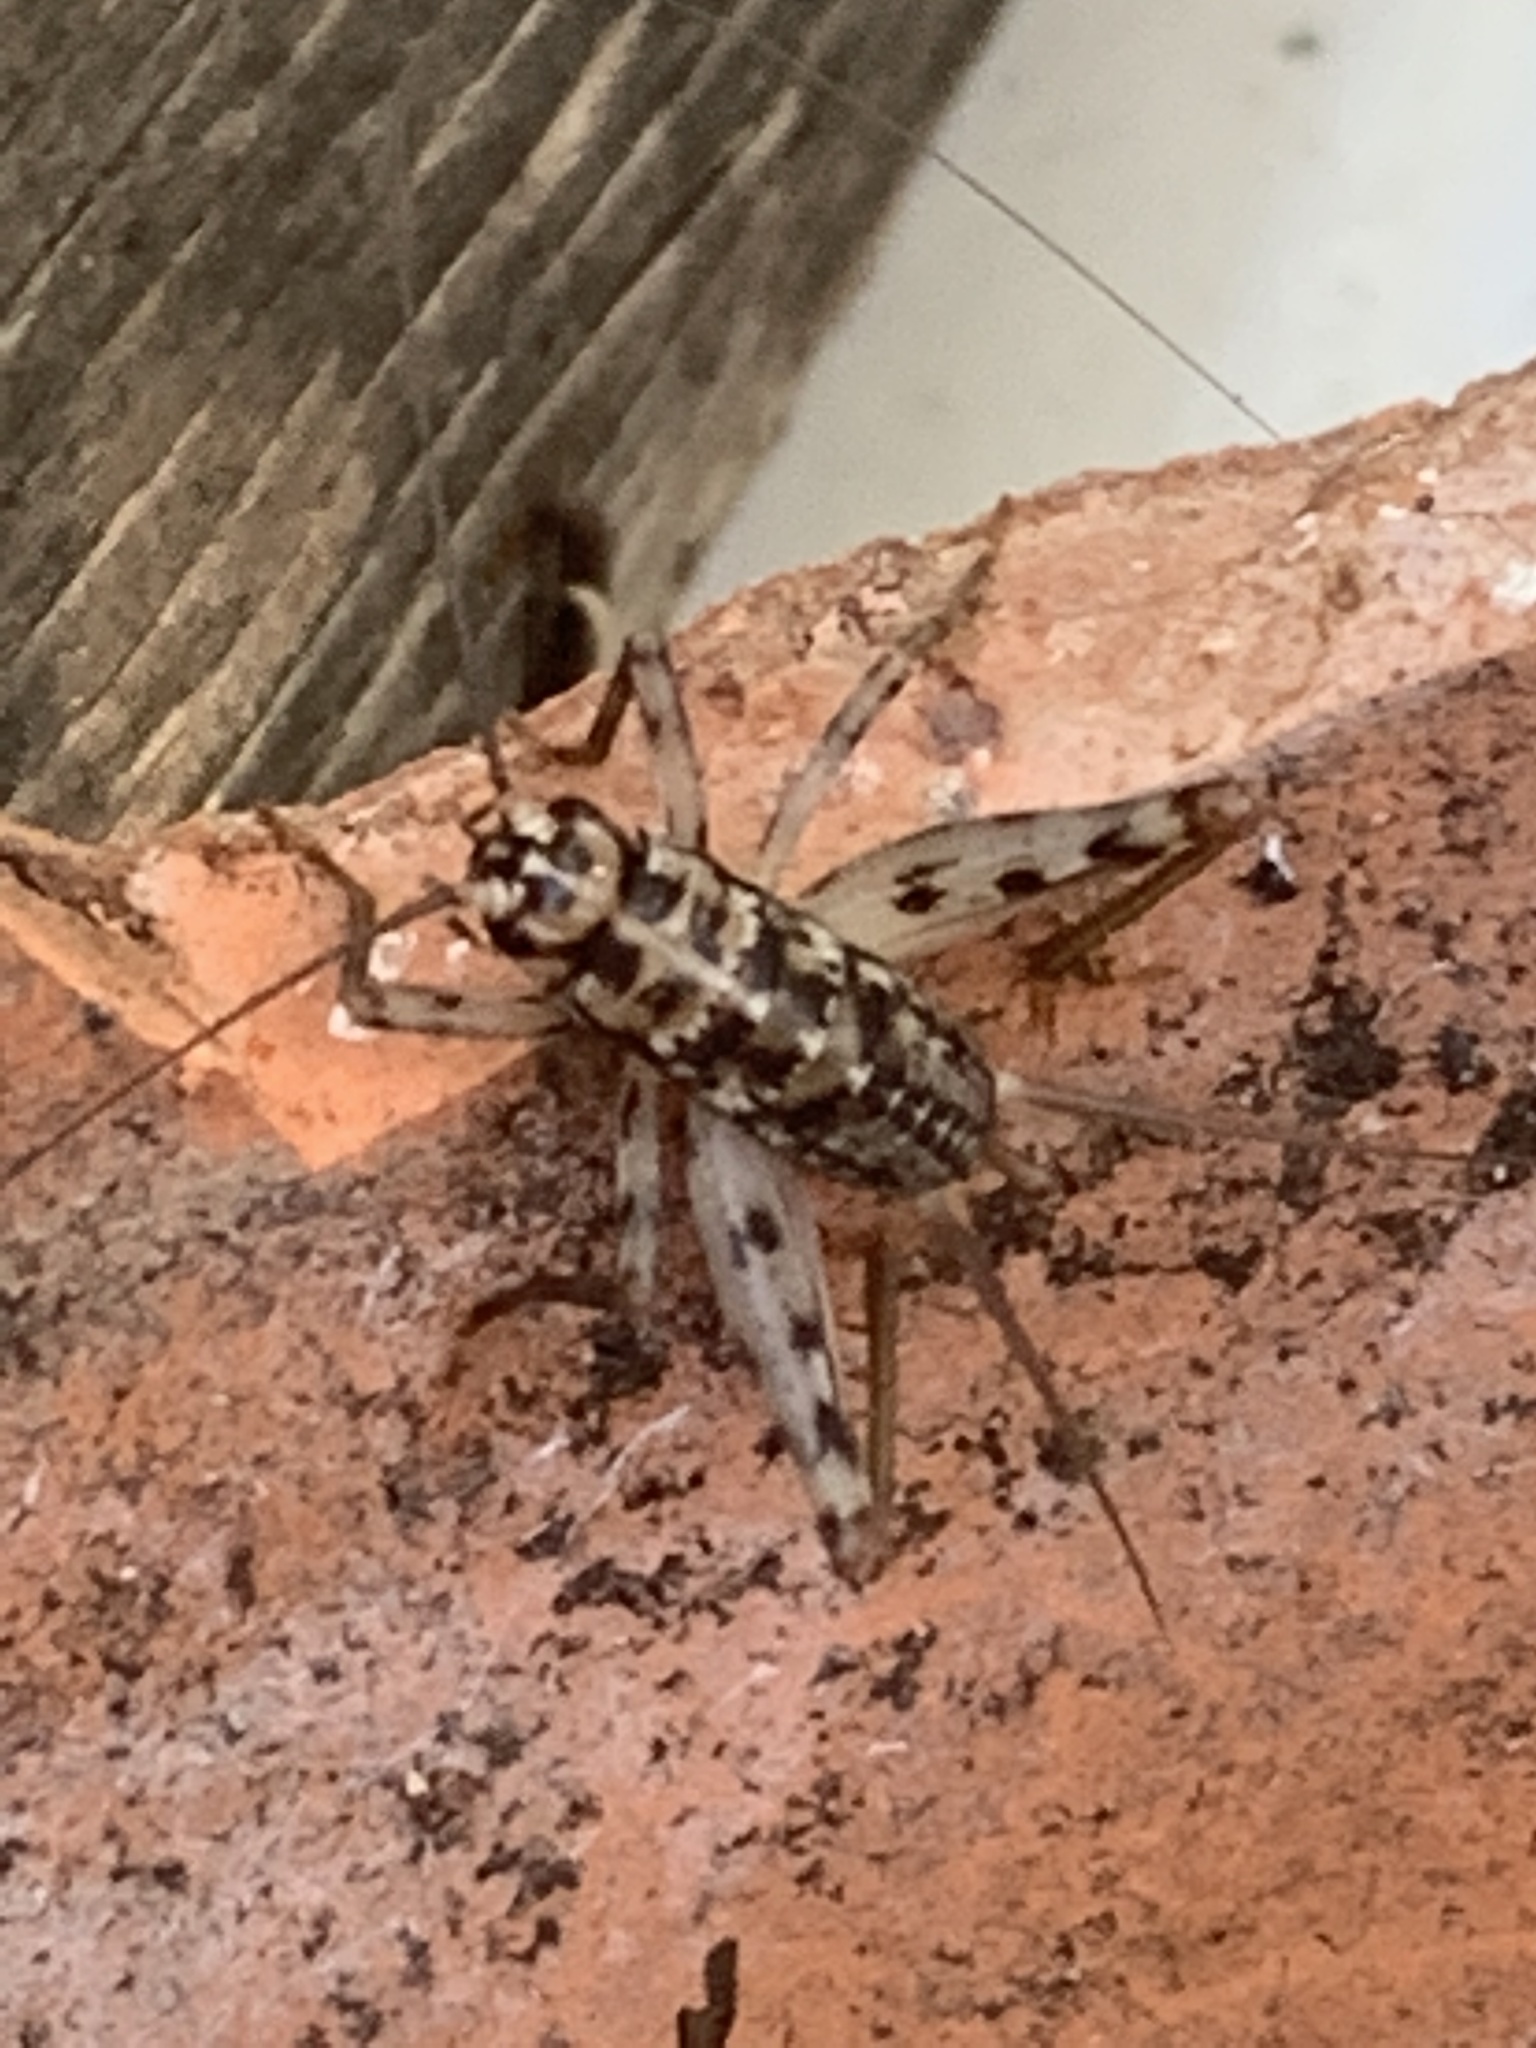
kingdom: Animalia
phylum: Arthropoda
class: Insecta
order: Orthoptera
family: Gryllidae
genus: Gryllomorpha
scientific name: Gryllomorpha dalmatina
